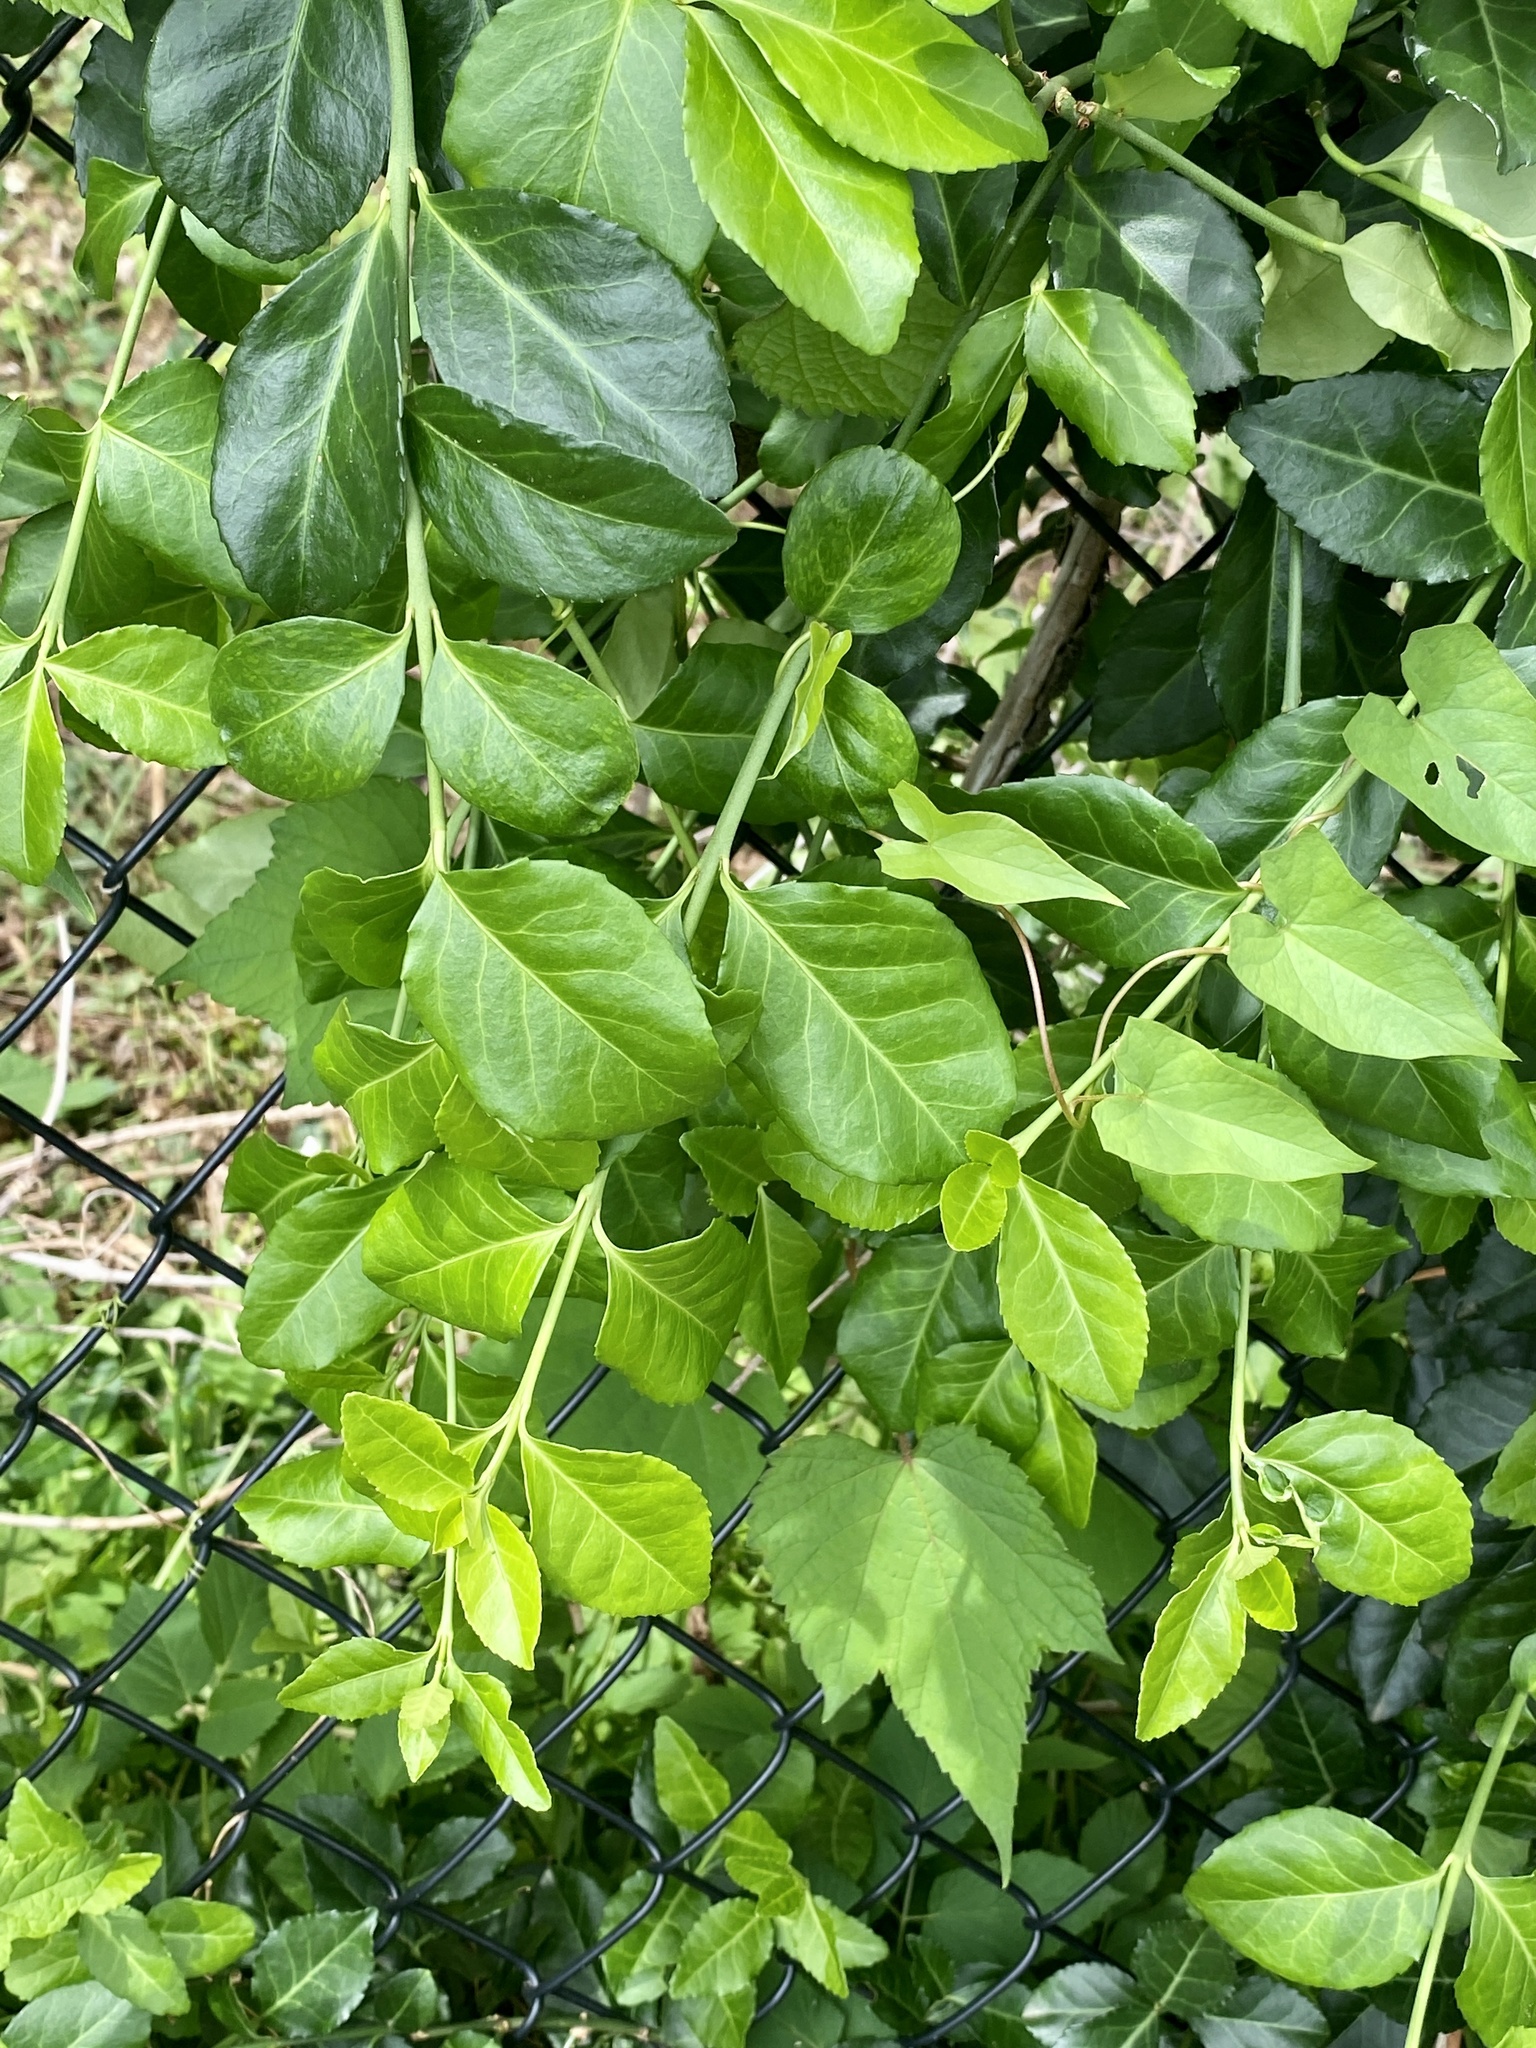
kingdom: Plantae
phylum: Tracheophyta
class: Magnoliopsida
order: Celastrales
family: Celastraceae
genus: Euonymus
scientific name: Euonymus fortunei
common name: Climbing euonymus
